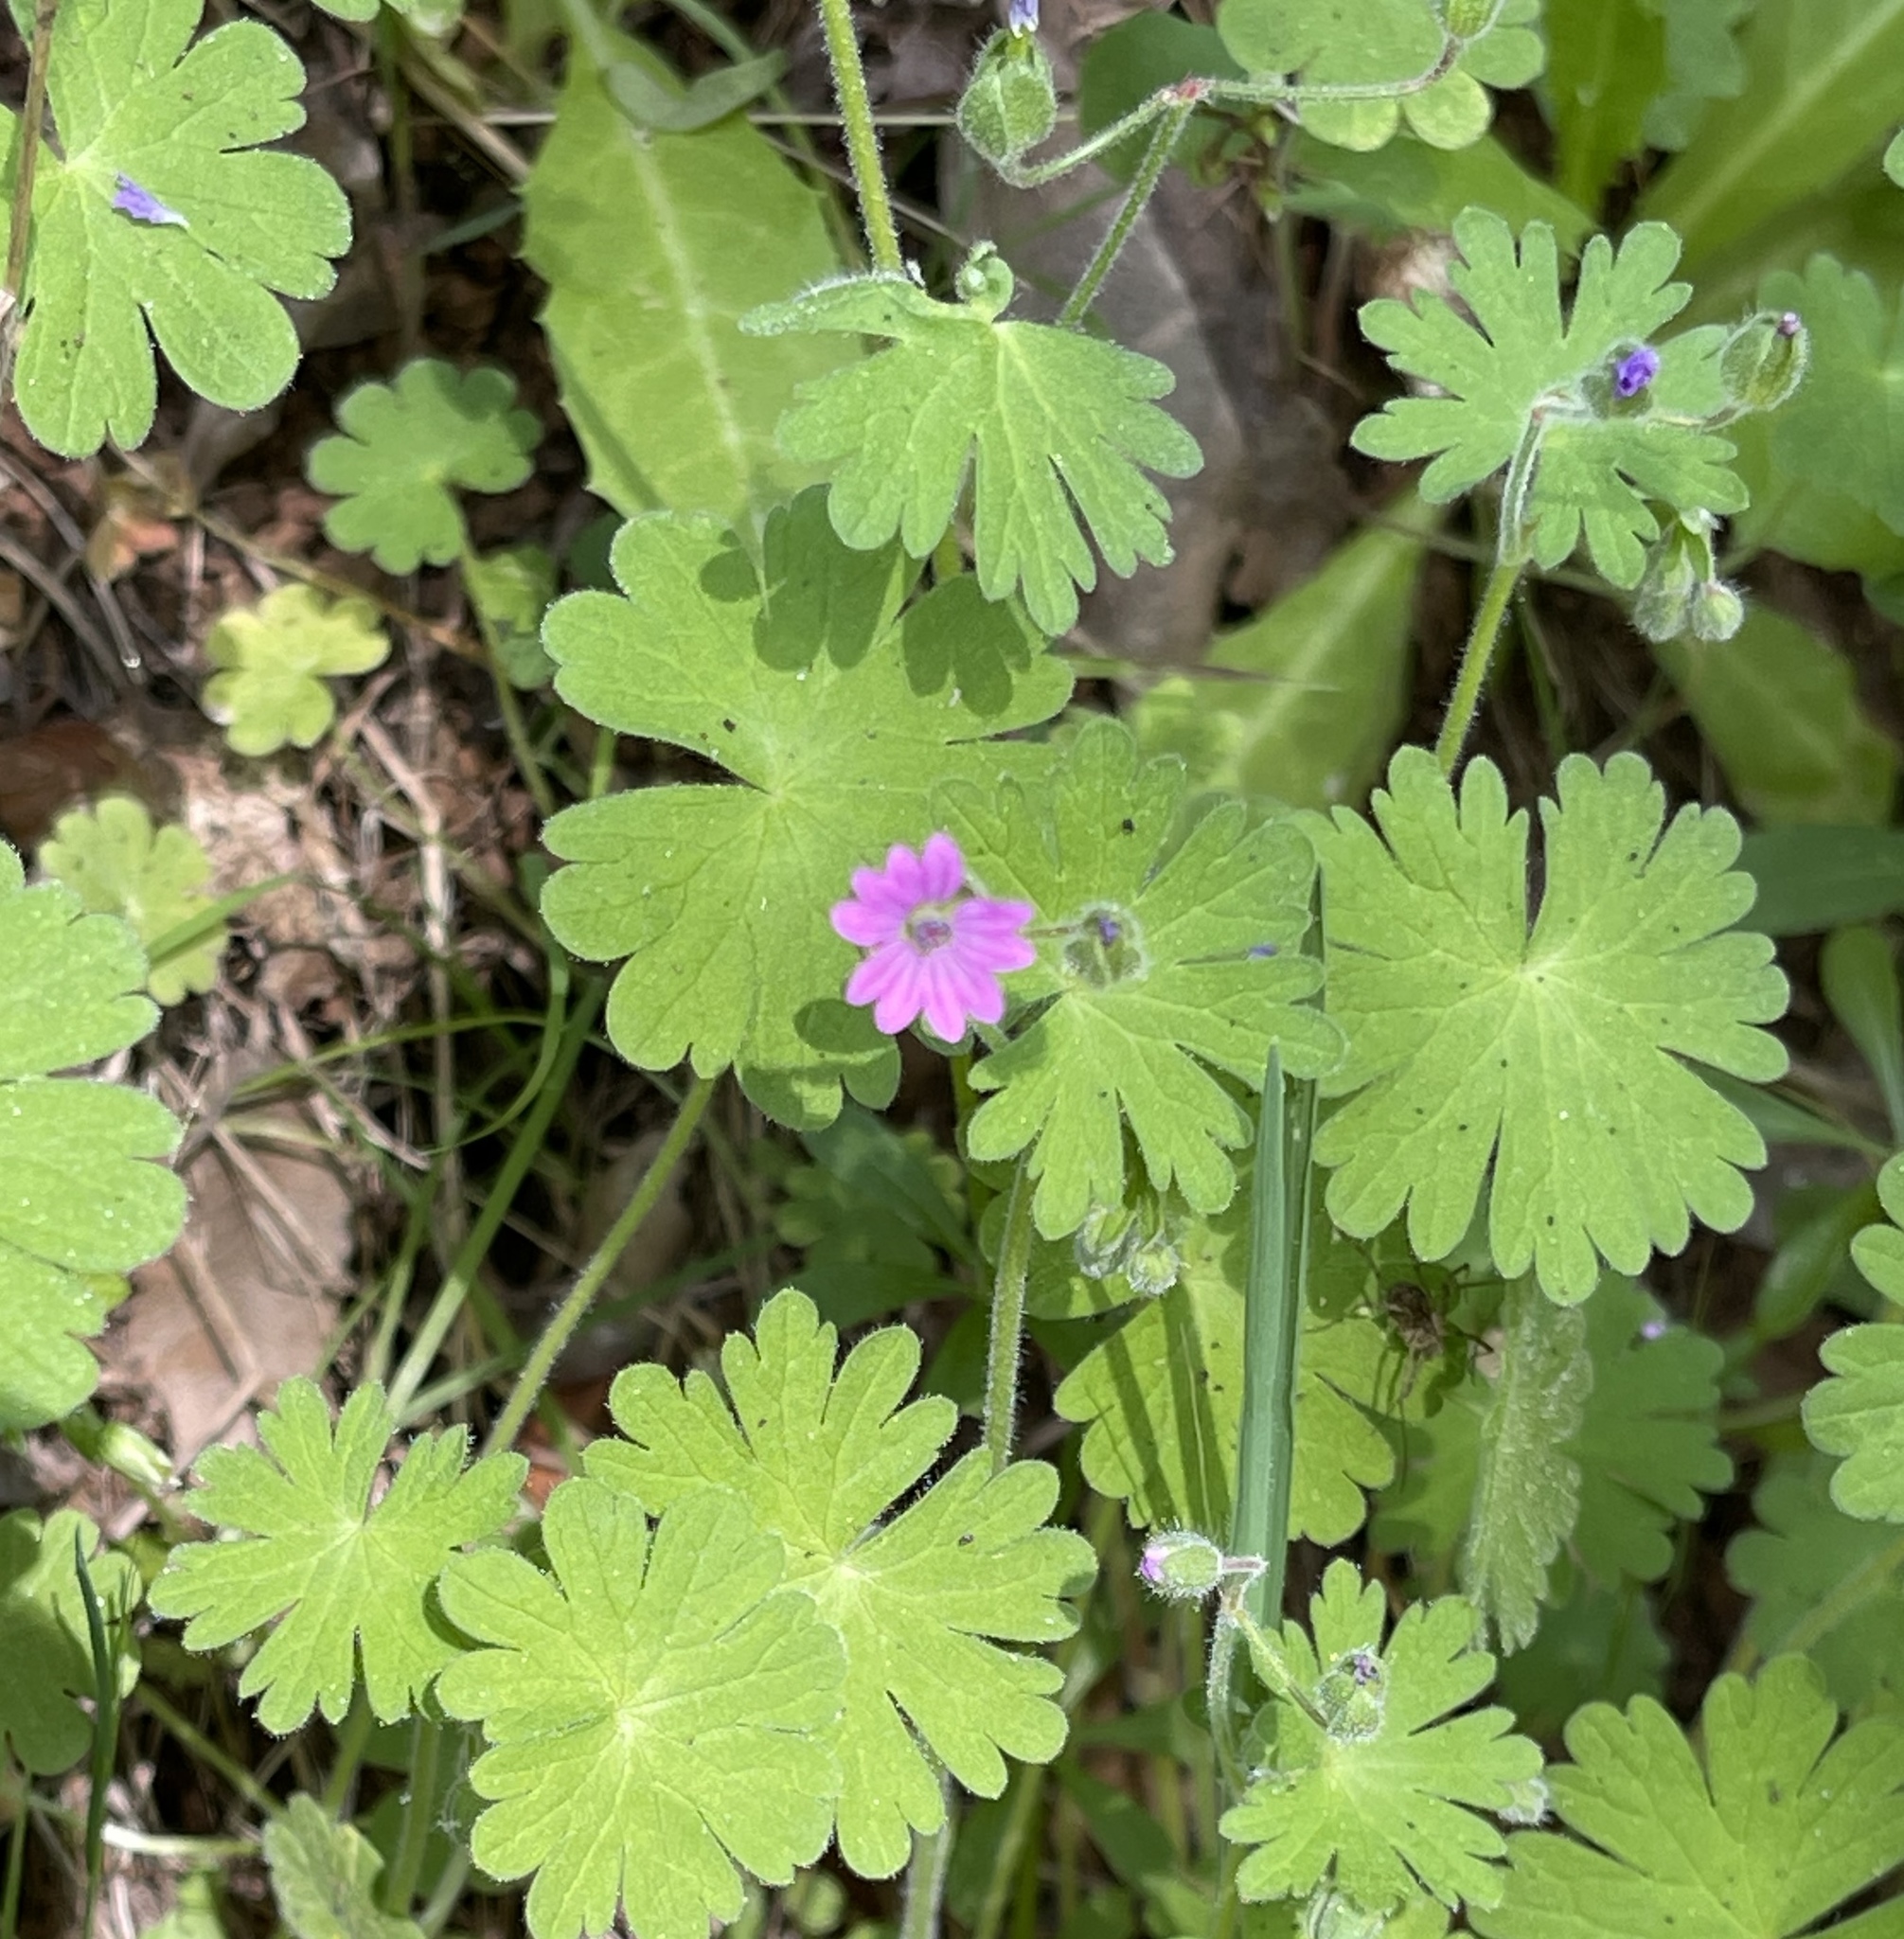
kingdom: Plantae
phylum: Tracheophyta
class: Magnoliopsida
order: Geraniales
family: Geraniaceae
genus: Geranium
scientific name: Geranium molle
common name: Dove's-foot crane's-bill
